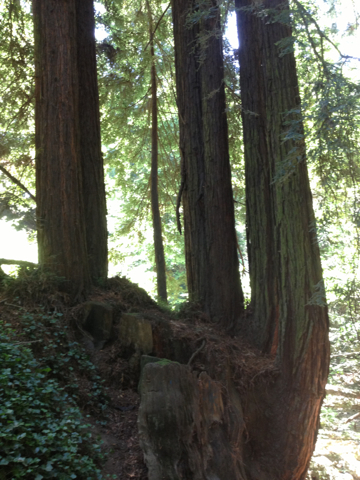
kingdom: Plantae
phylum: Tracheophyta
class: Pinopsida
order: Pinales
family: Cupressaceae
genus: Sequoia
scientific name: Sequoia sempervirens
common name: Coast redwood
